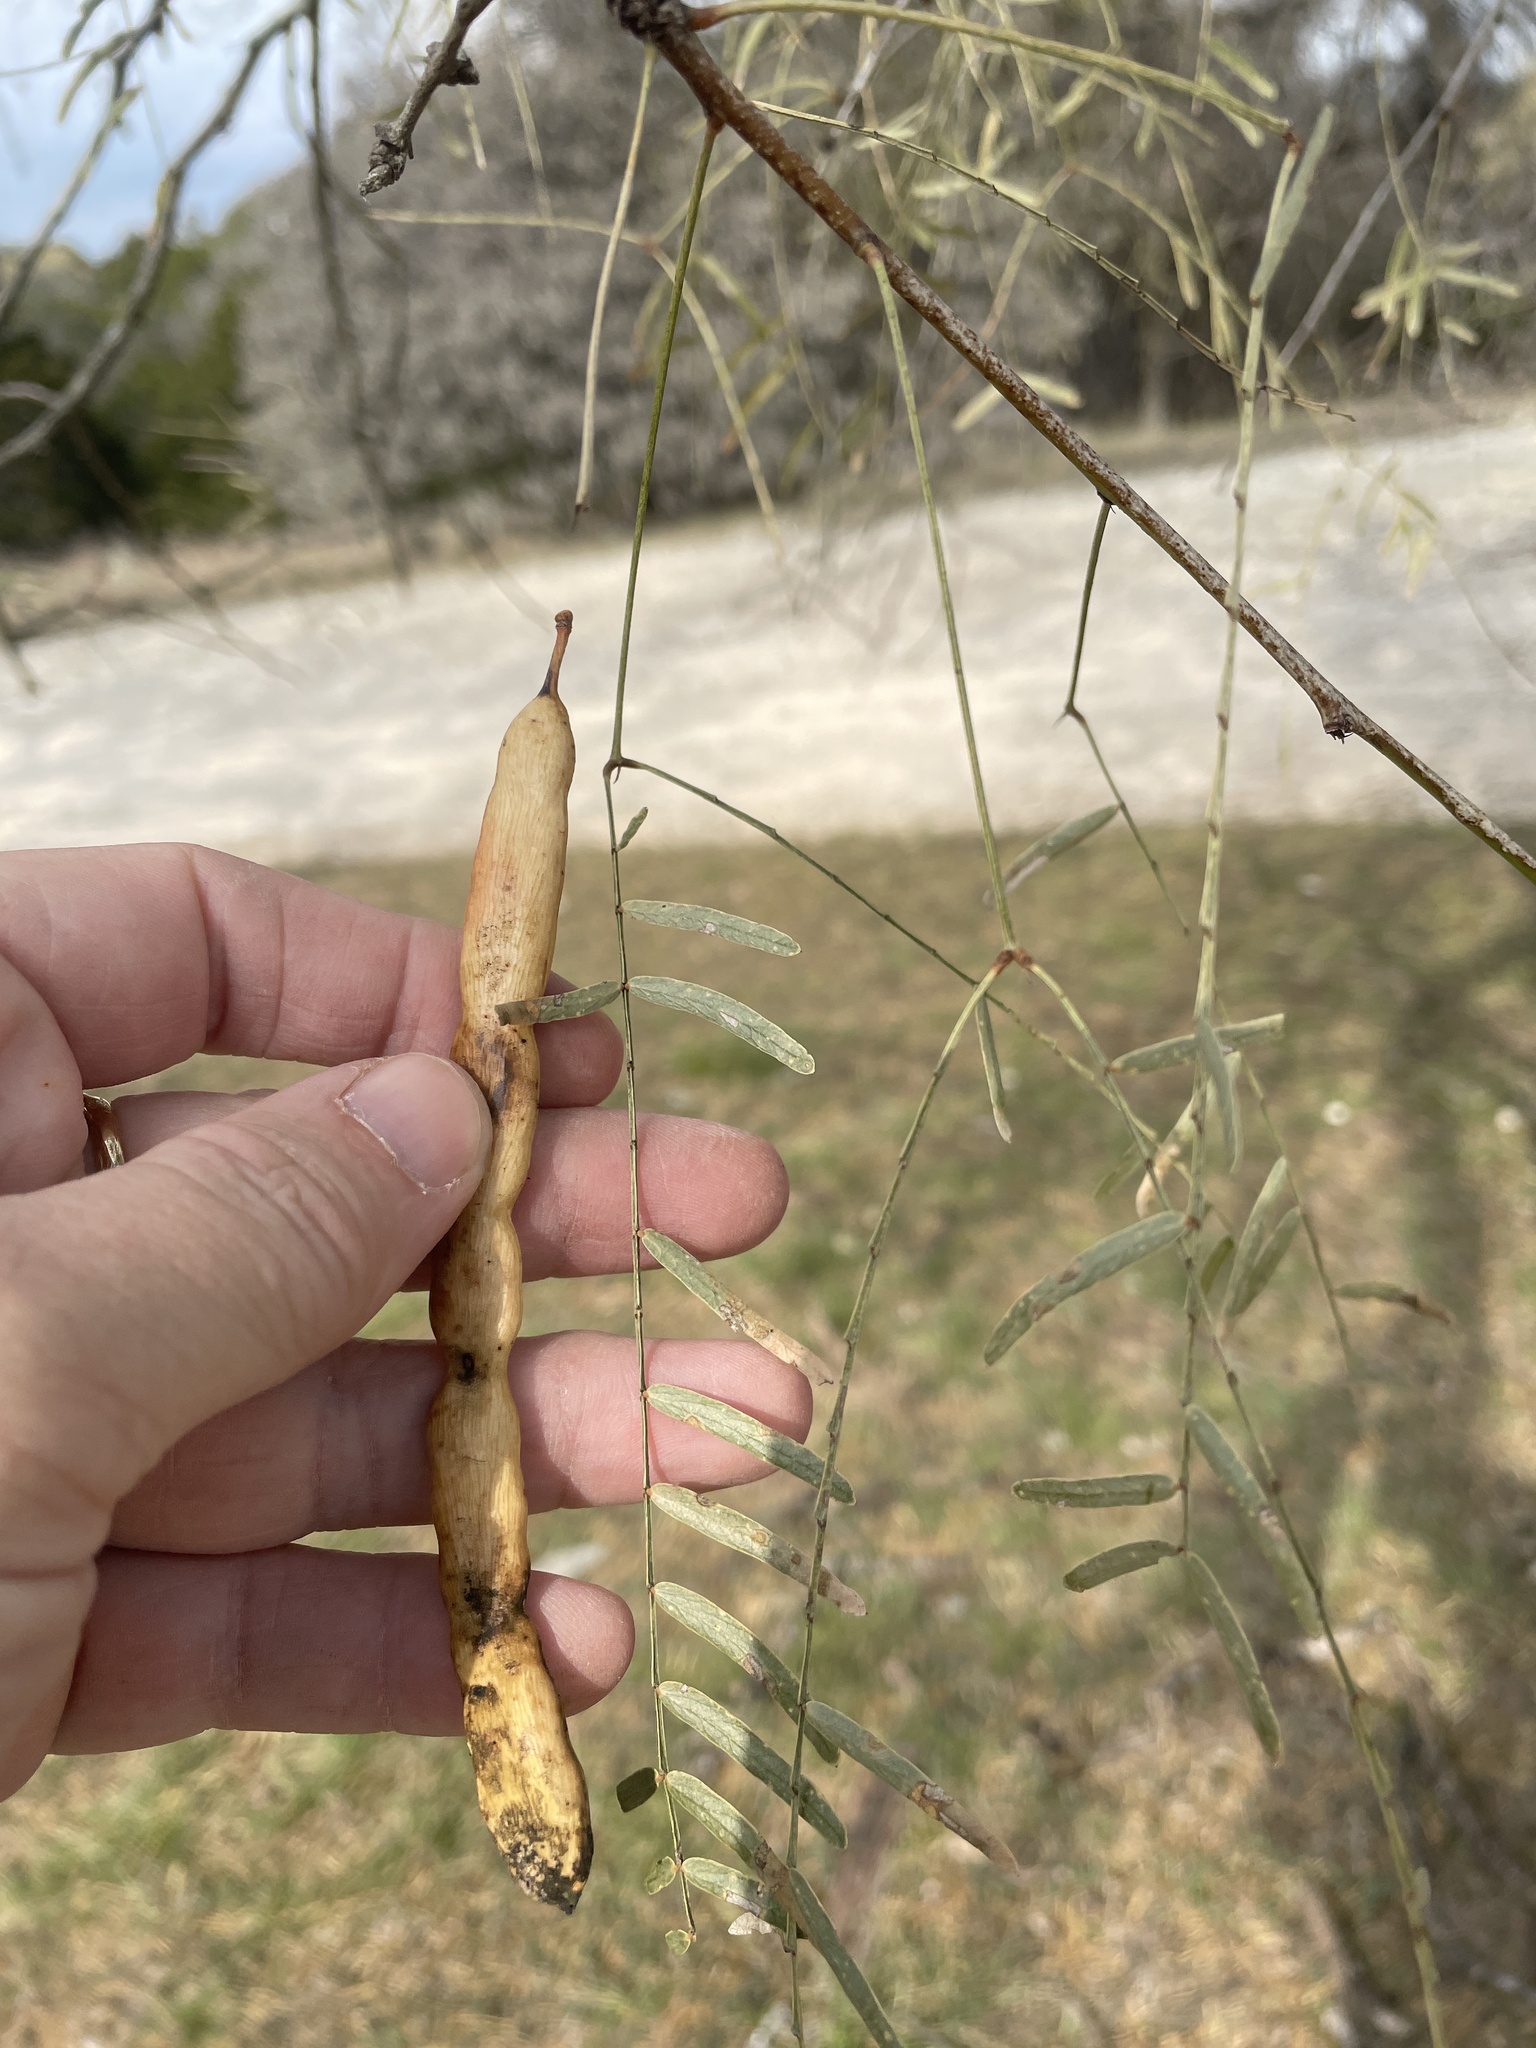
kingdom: Plantae
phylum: Tracheophyta
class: Magnoliopsida
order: Fabales
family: Fabaceae
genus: Prosopis
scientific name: Prosopis glandulosa
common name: Honey mesquite
